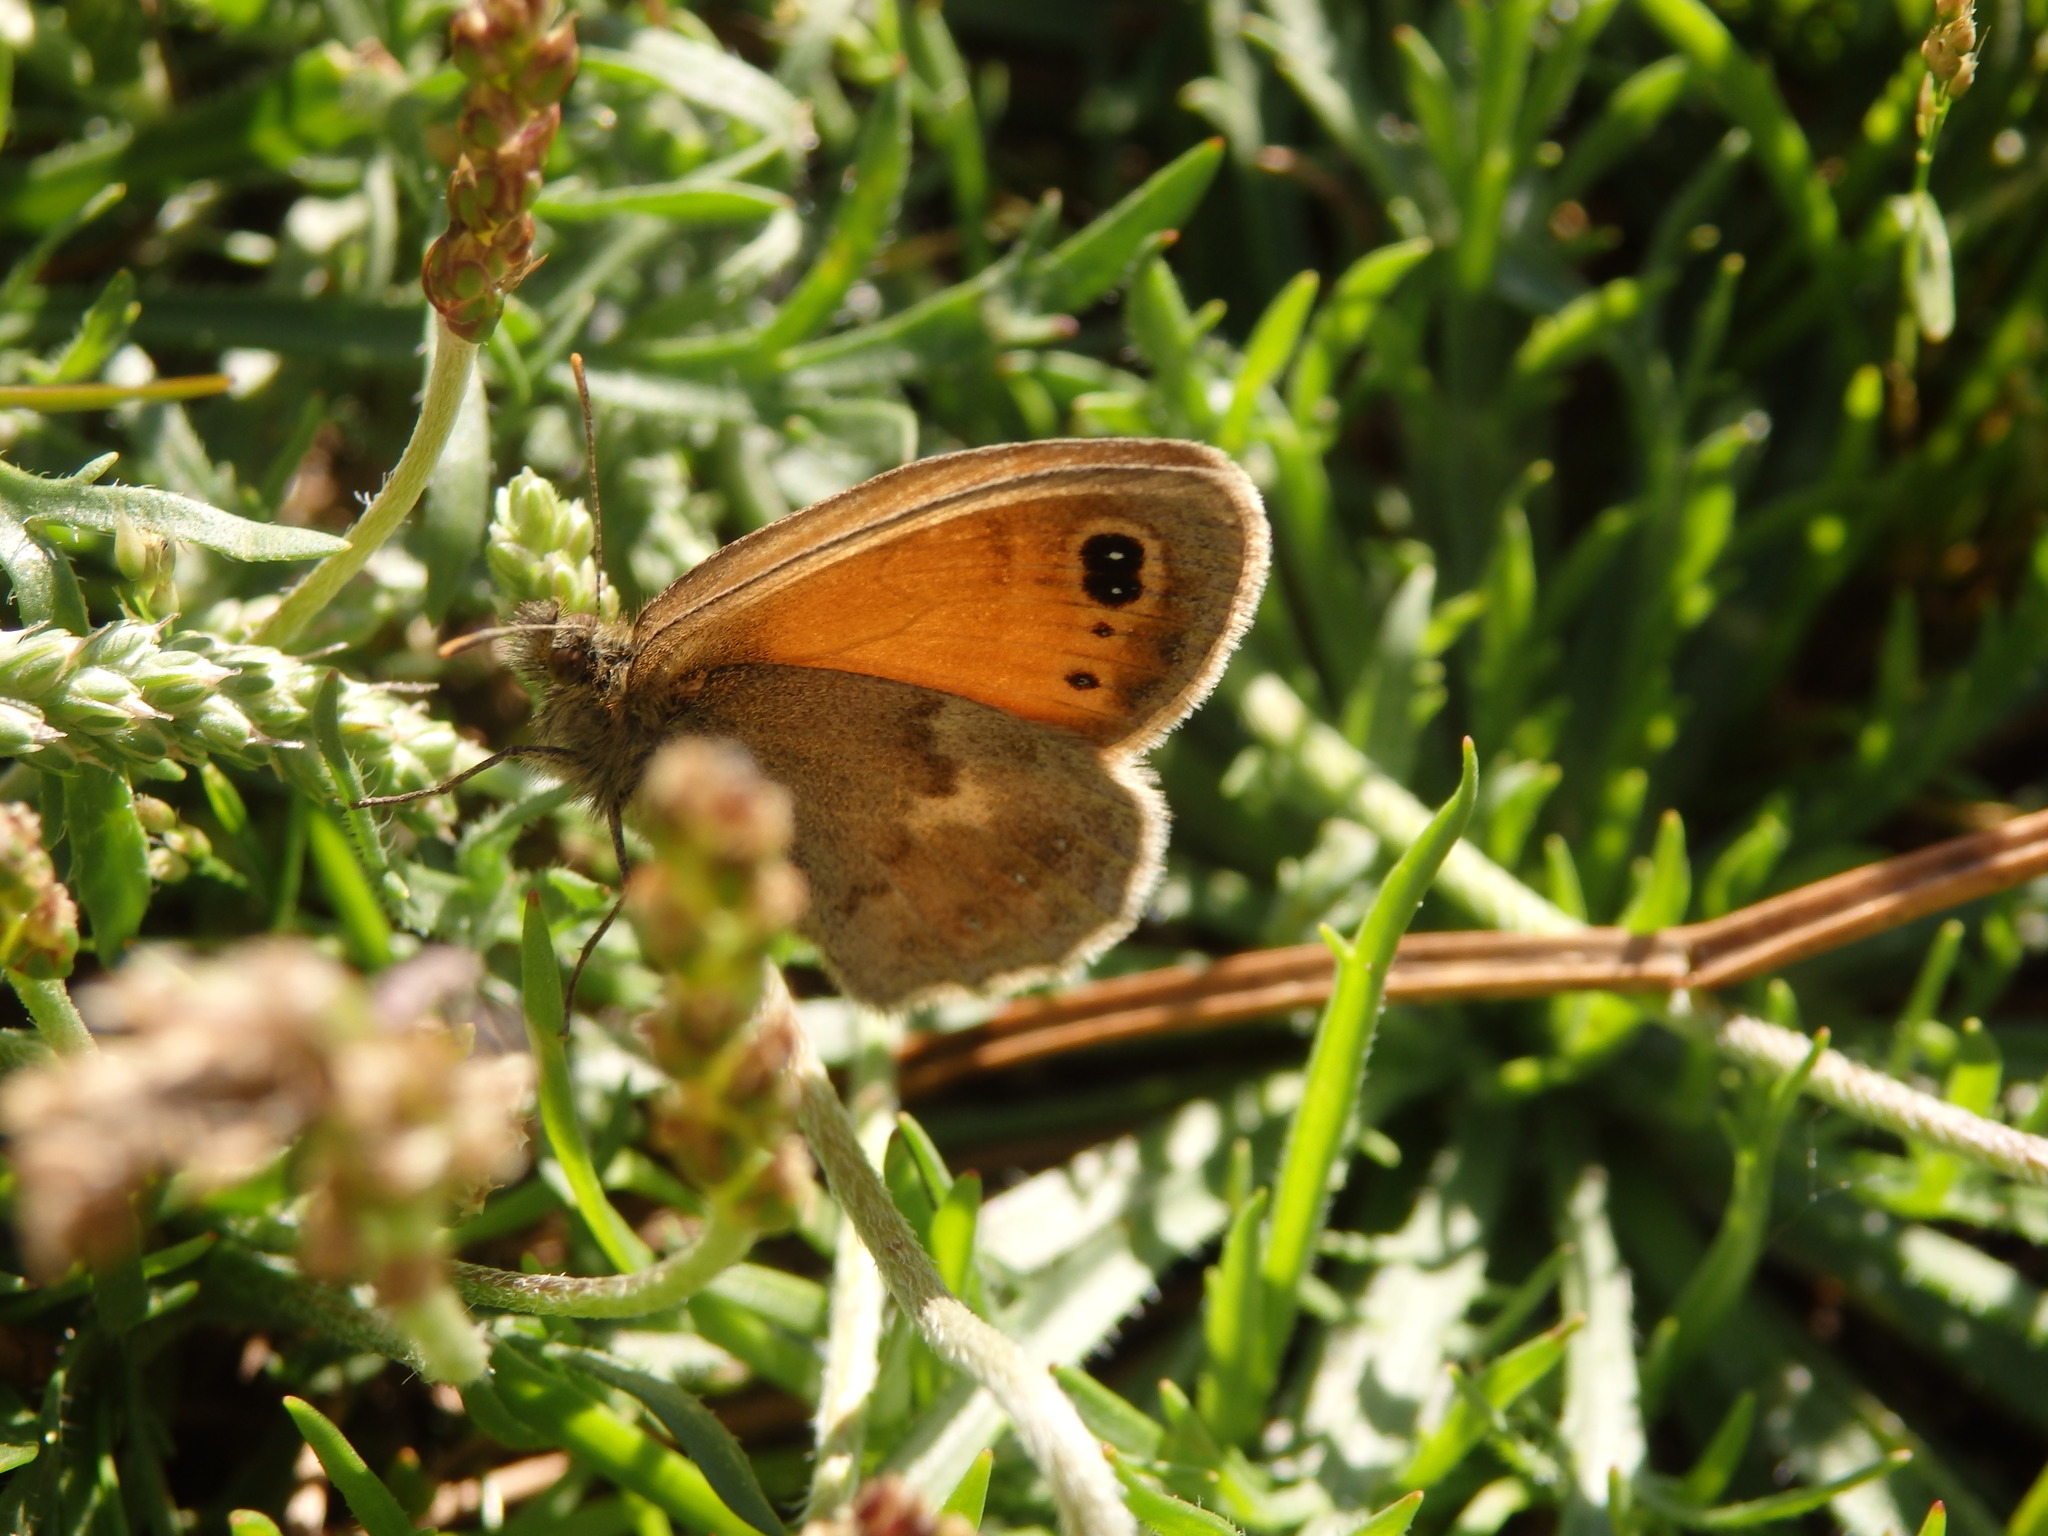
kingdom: Animalia
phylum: Arthropoda
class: Insecta
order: Lepidoptera
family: Nymphalidae
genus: Coenonympha
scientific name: Coenonympha pamphilus
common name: Small heath
